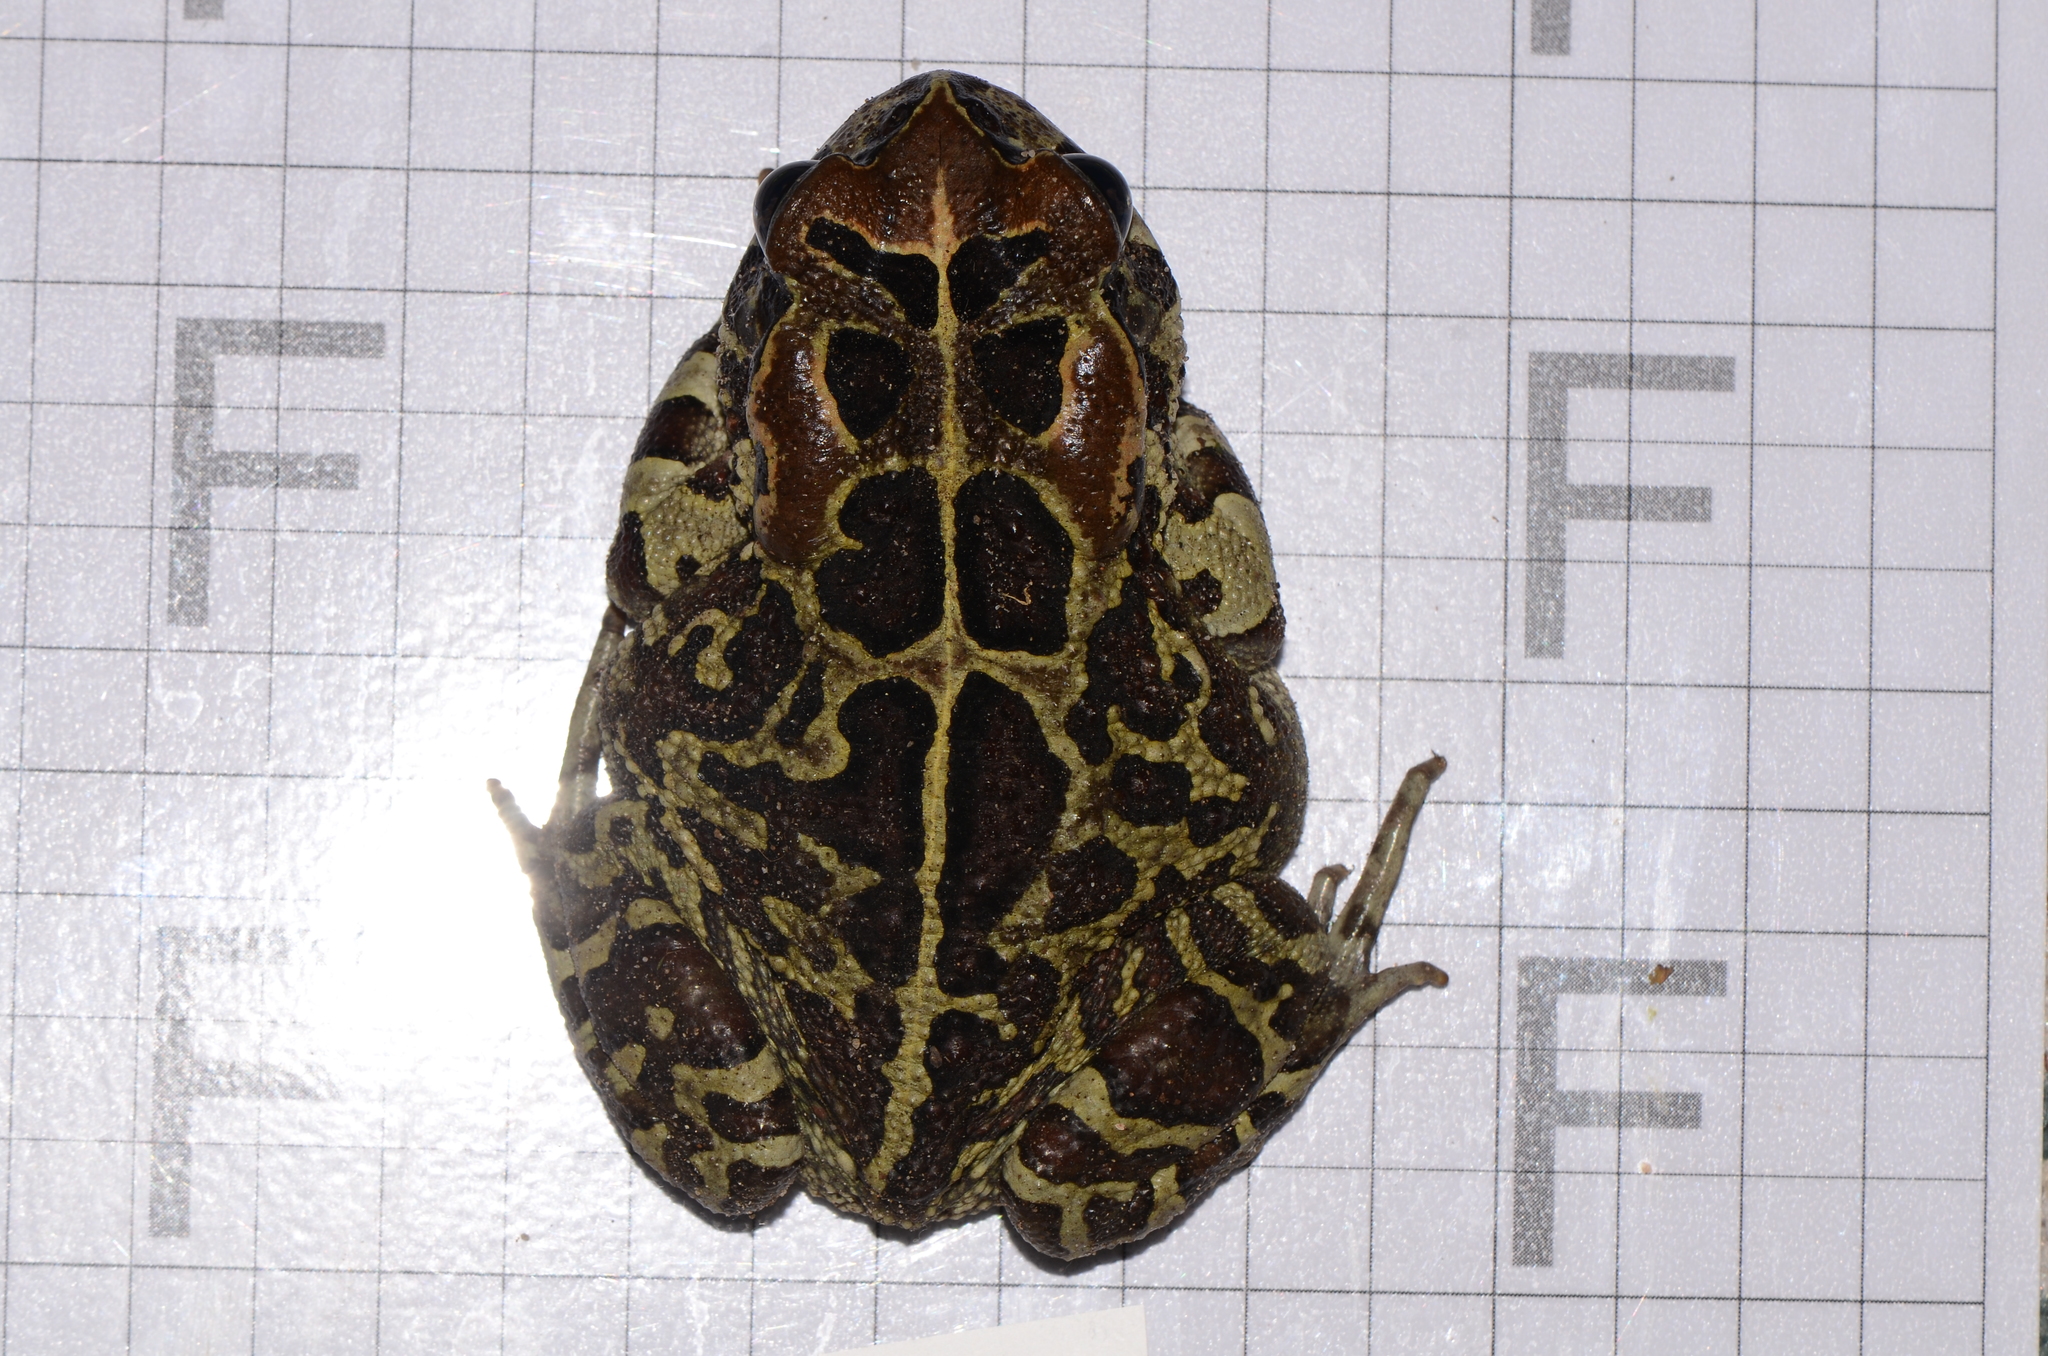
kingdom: Animalia
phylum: Chordata
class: Amphibia
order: Anura
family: Bufonidae
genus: Sclerophrys
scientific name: Sclerophrys pantherina
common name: Panther toad
